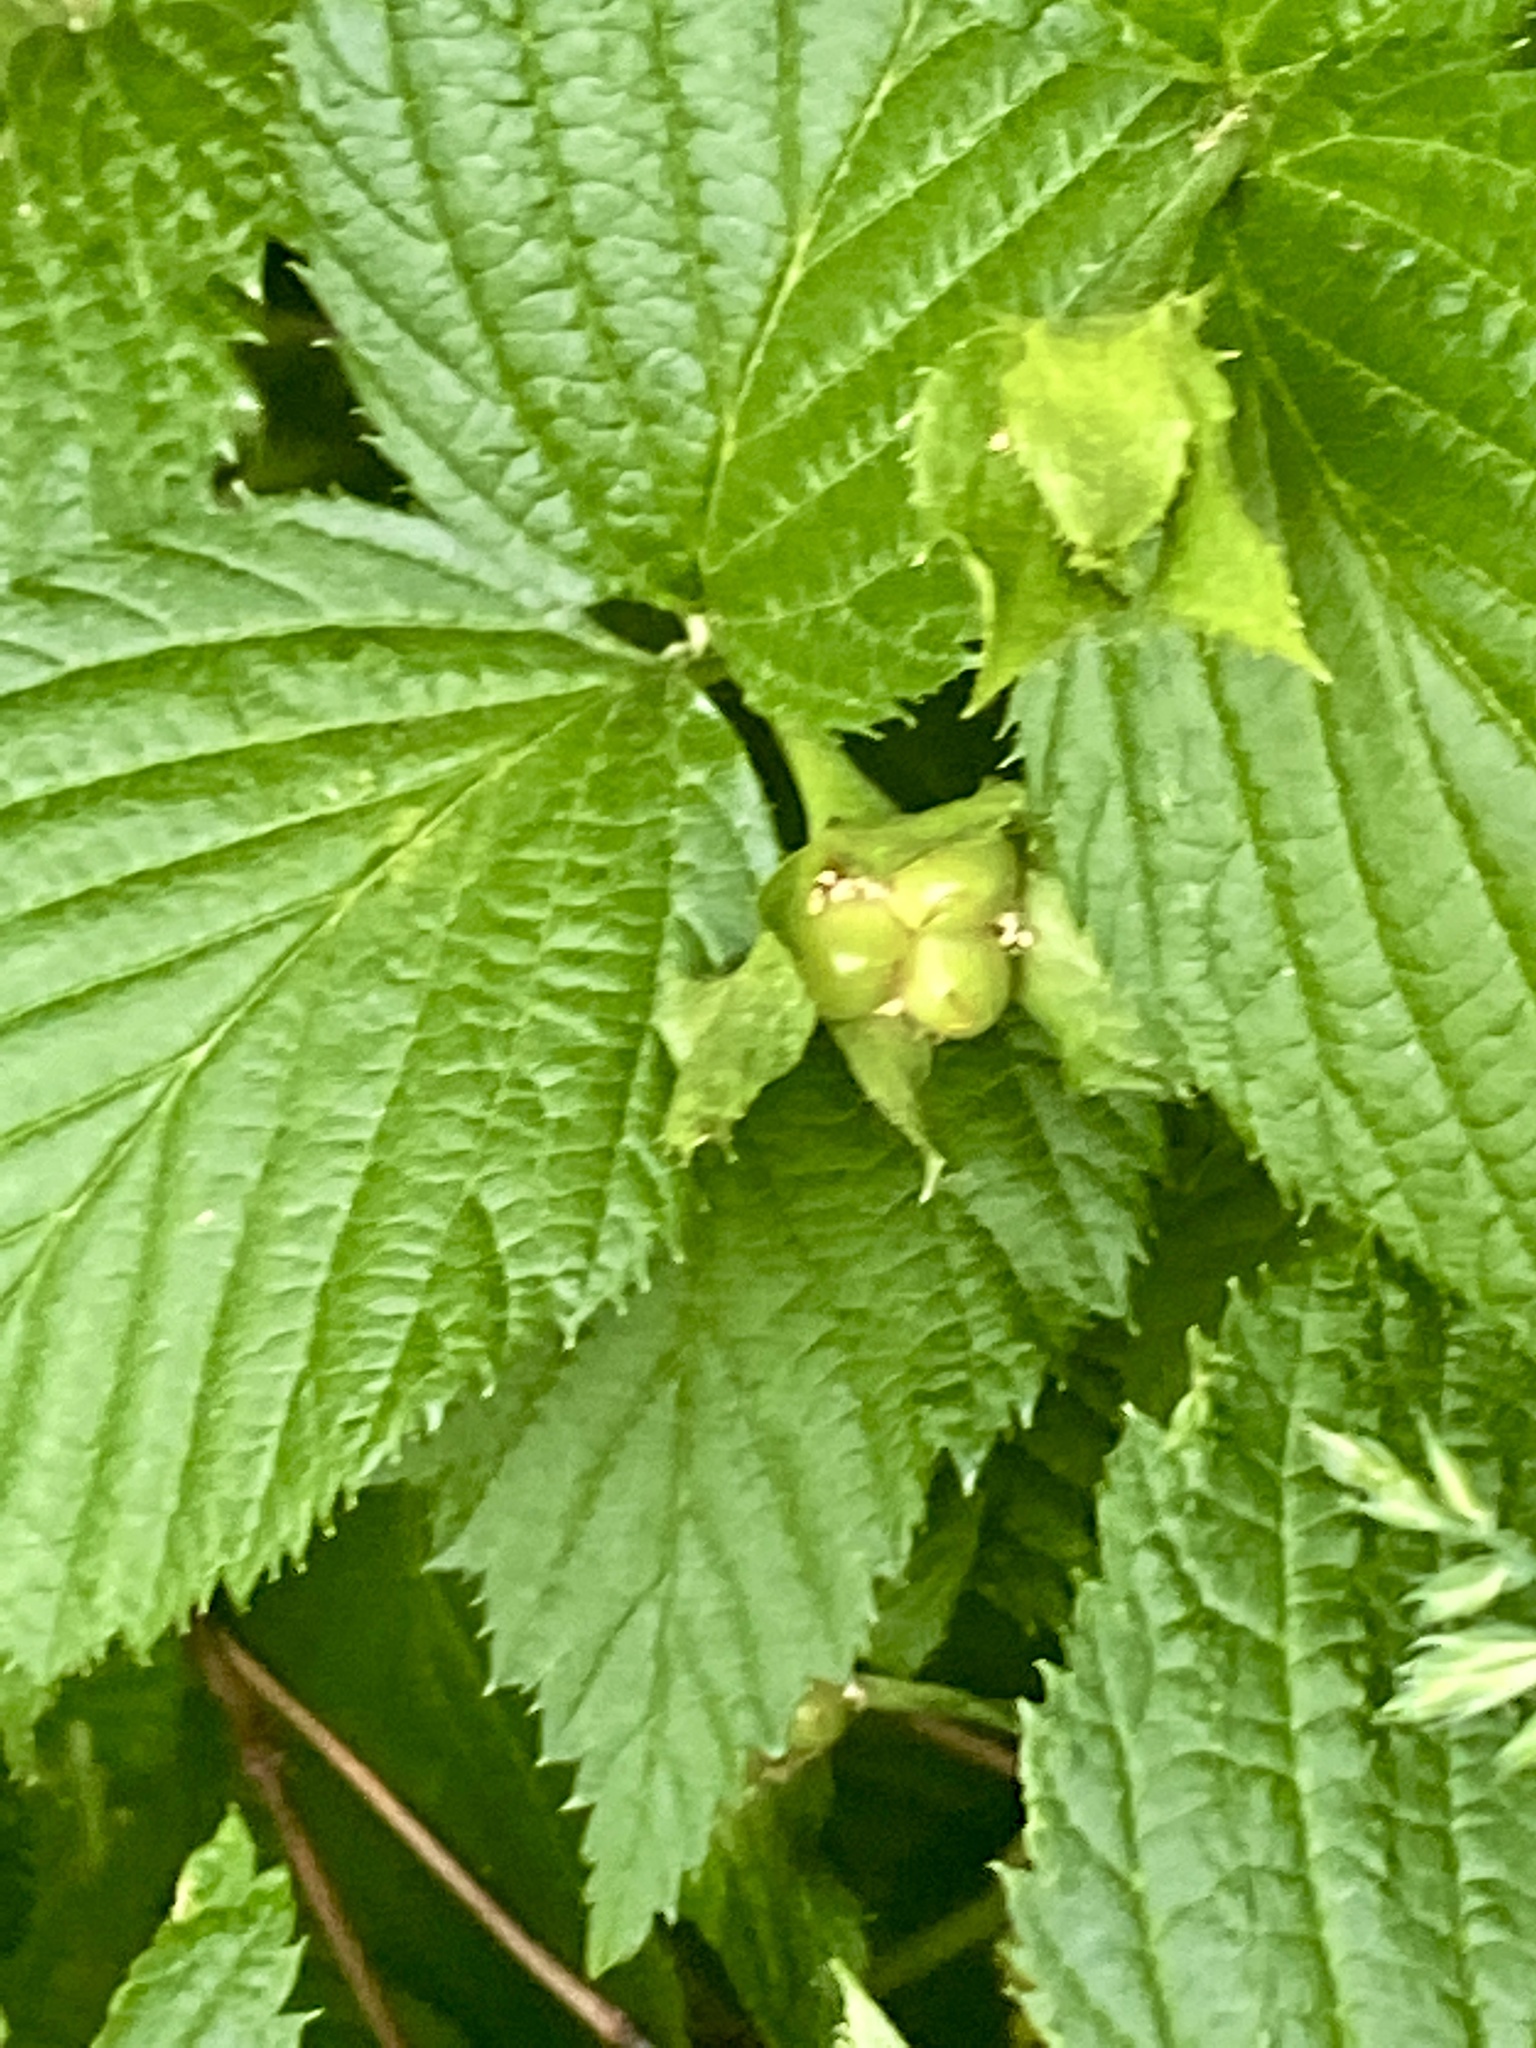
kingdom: Plantae
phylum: Tracheophyta
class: Magnoliopsida
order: Rosales
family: Rosaceae
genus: Rhodotypos
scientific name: Rhodotypos scandens
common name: Jetbead
